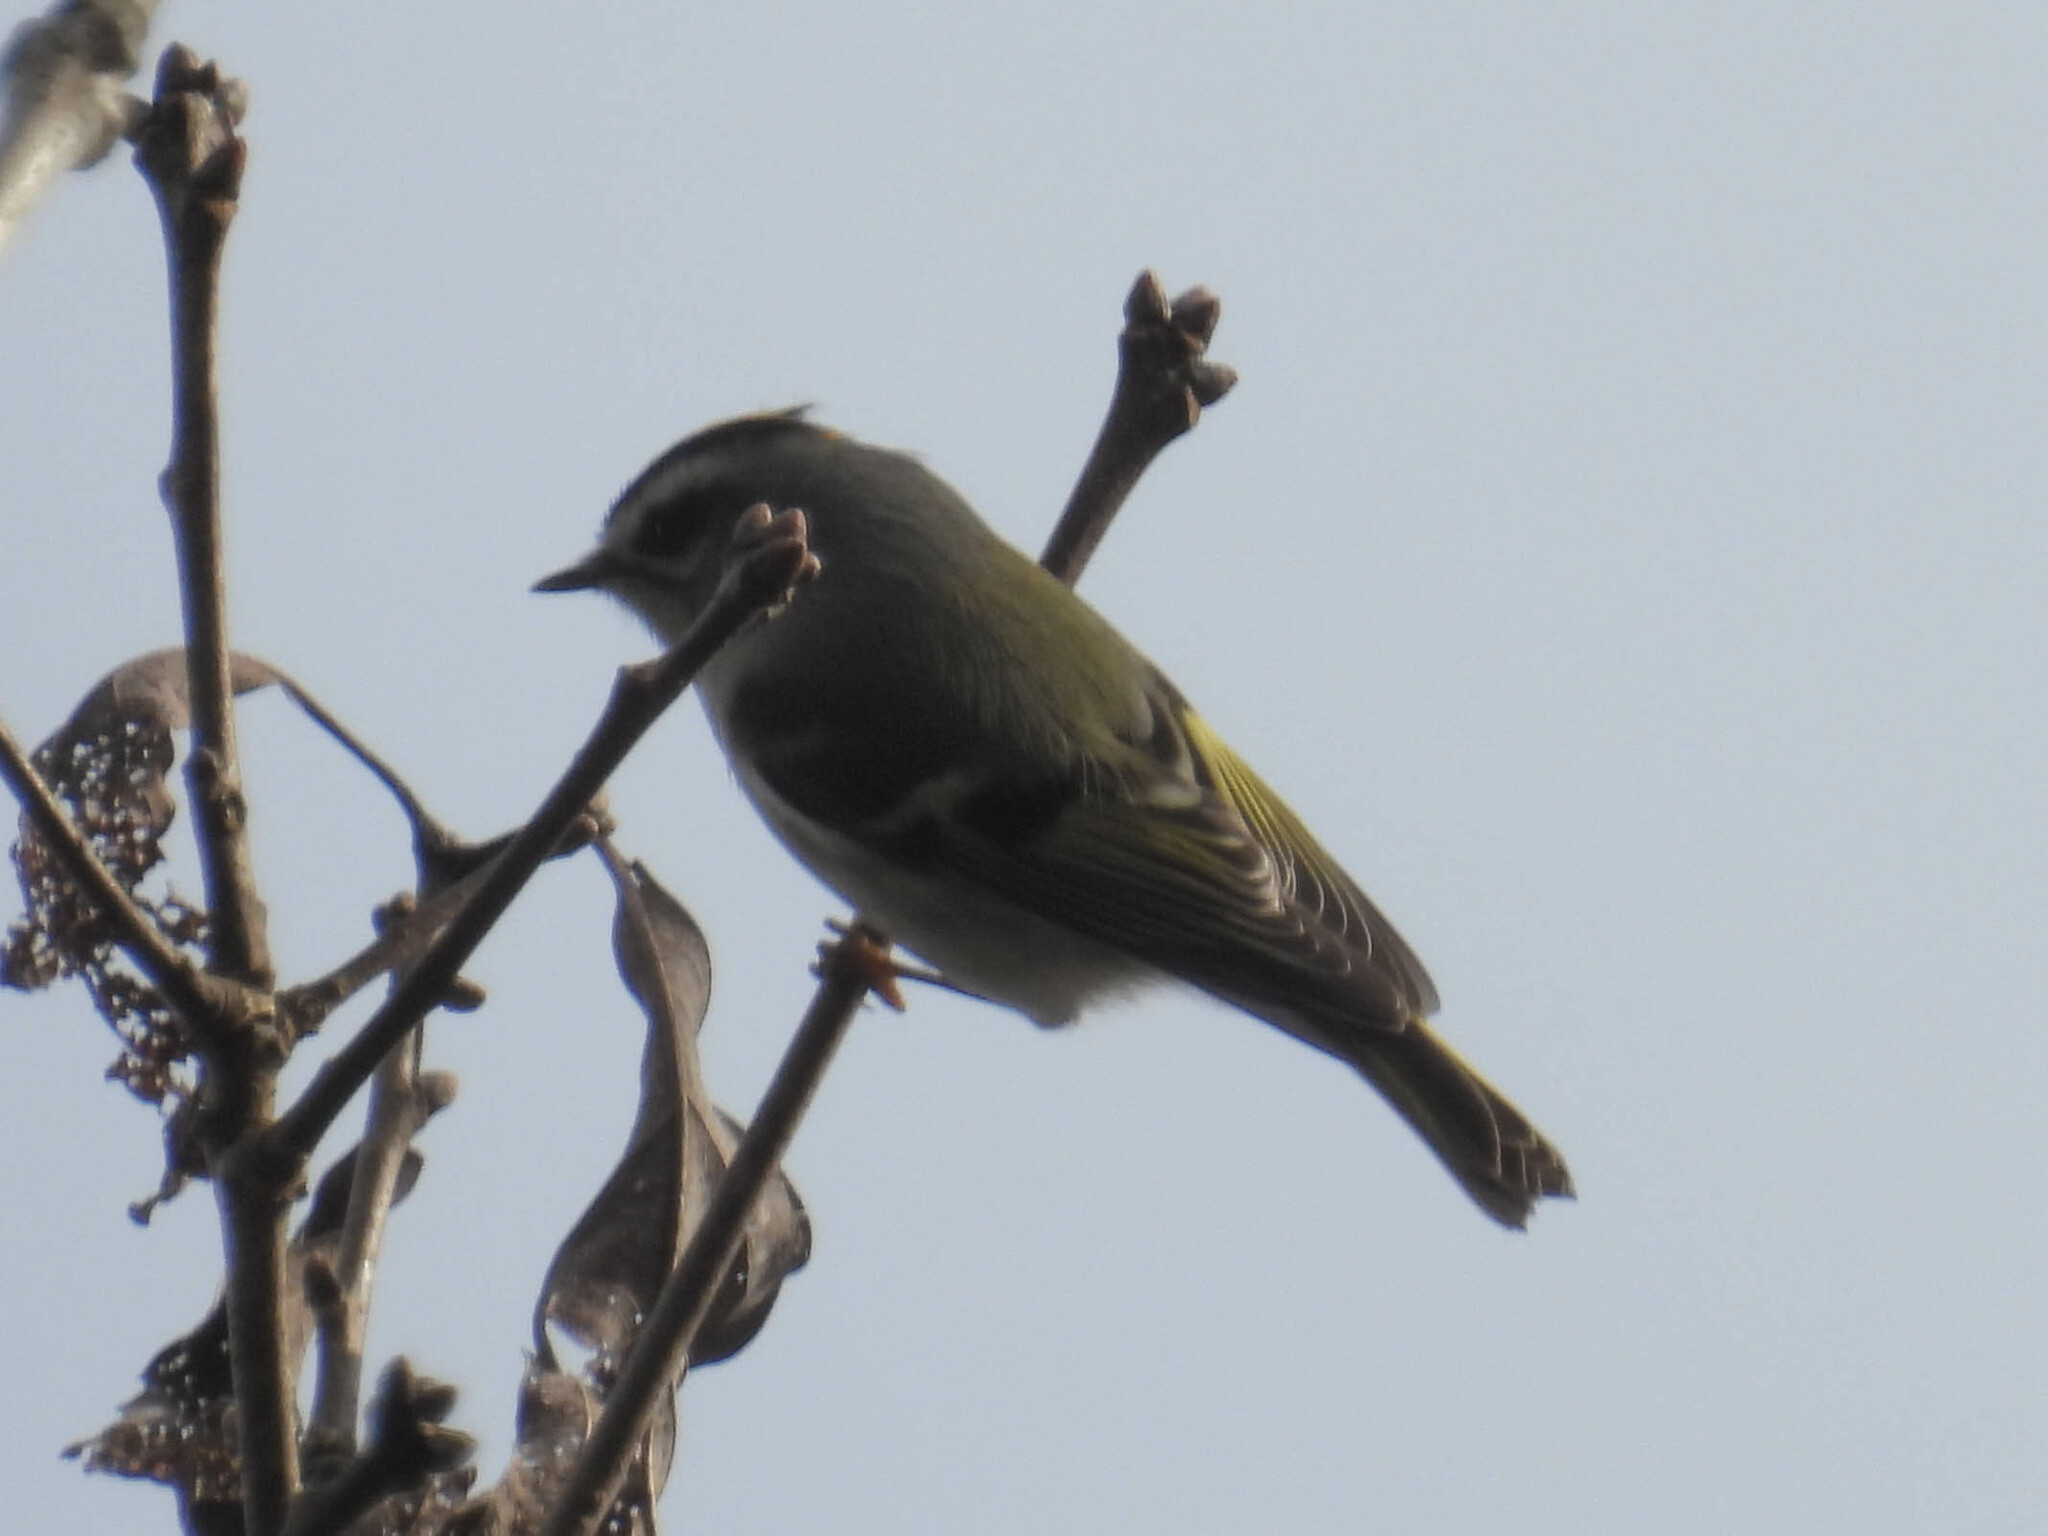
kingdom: Animalia
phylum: Chordata
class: Aves
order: Passeriformes
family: Regulidae
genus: Regulus
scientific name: Regulus satrapa
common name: Golden-crowned kinglet
